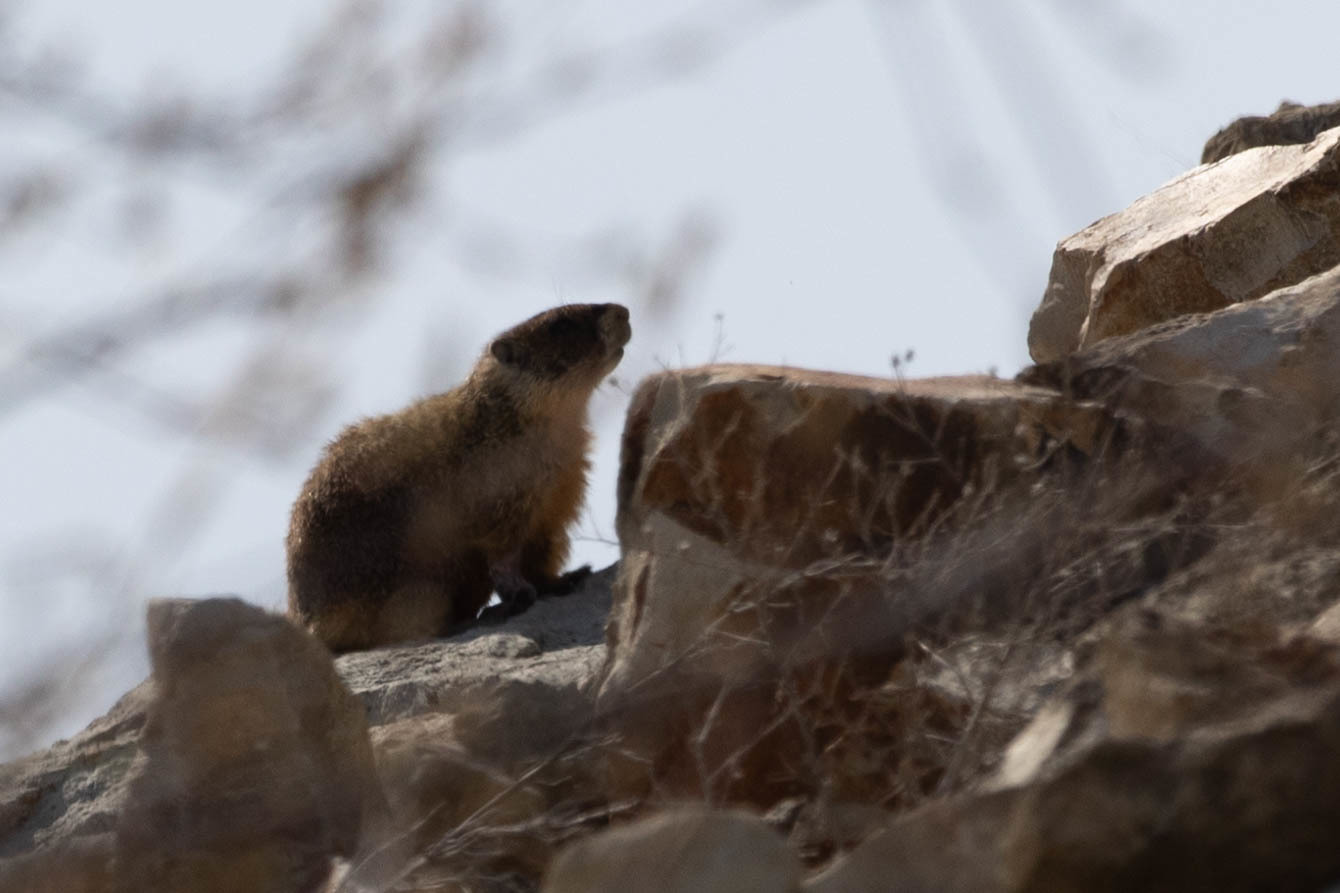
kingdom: Animalia
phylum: Chordata
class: Mammalia
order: Rodentia
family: Sciuridae
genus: Marmota
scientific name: Marmota flaviventris
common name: Yellow-bellied marmot
